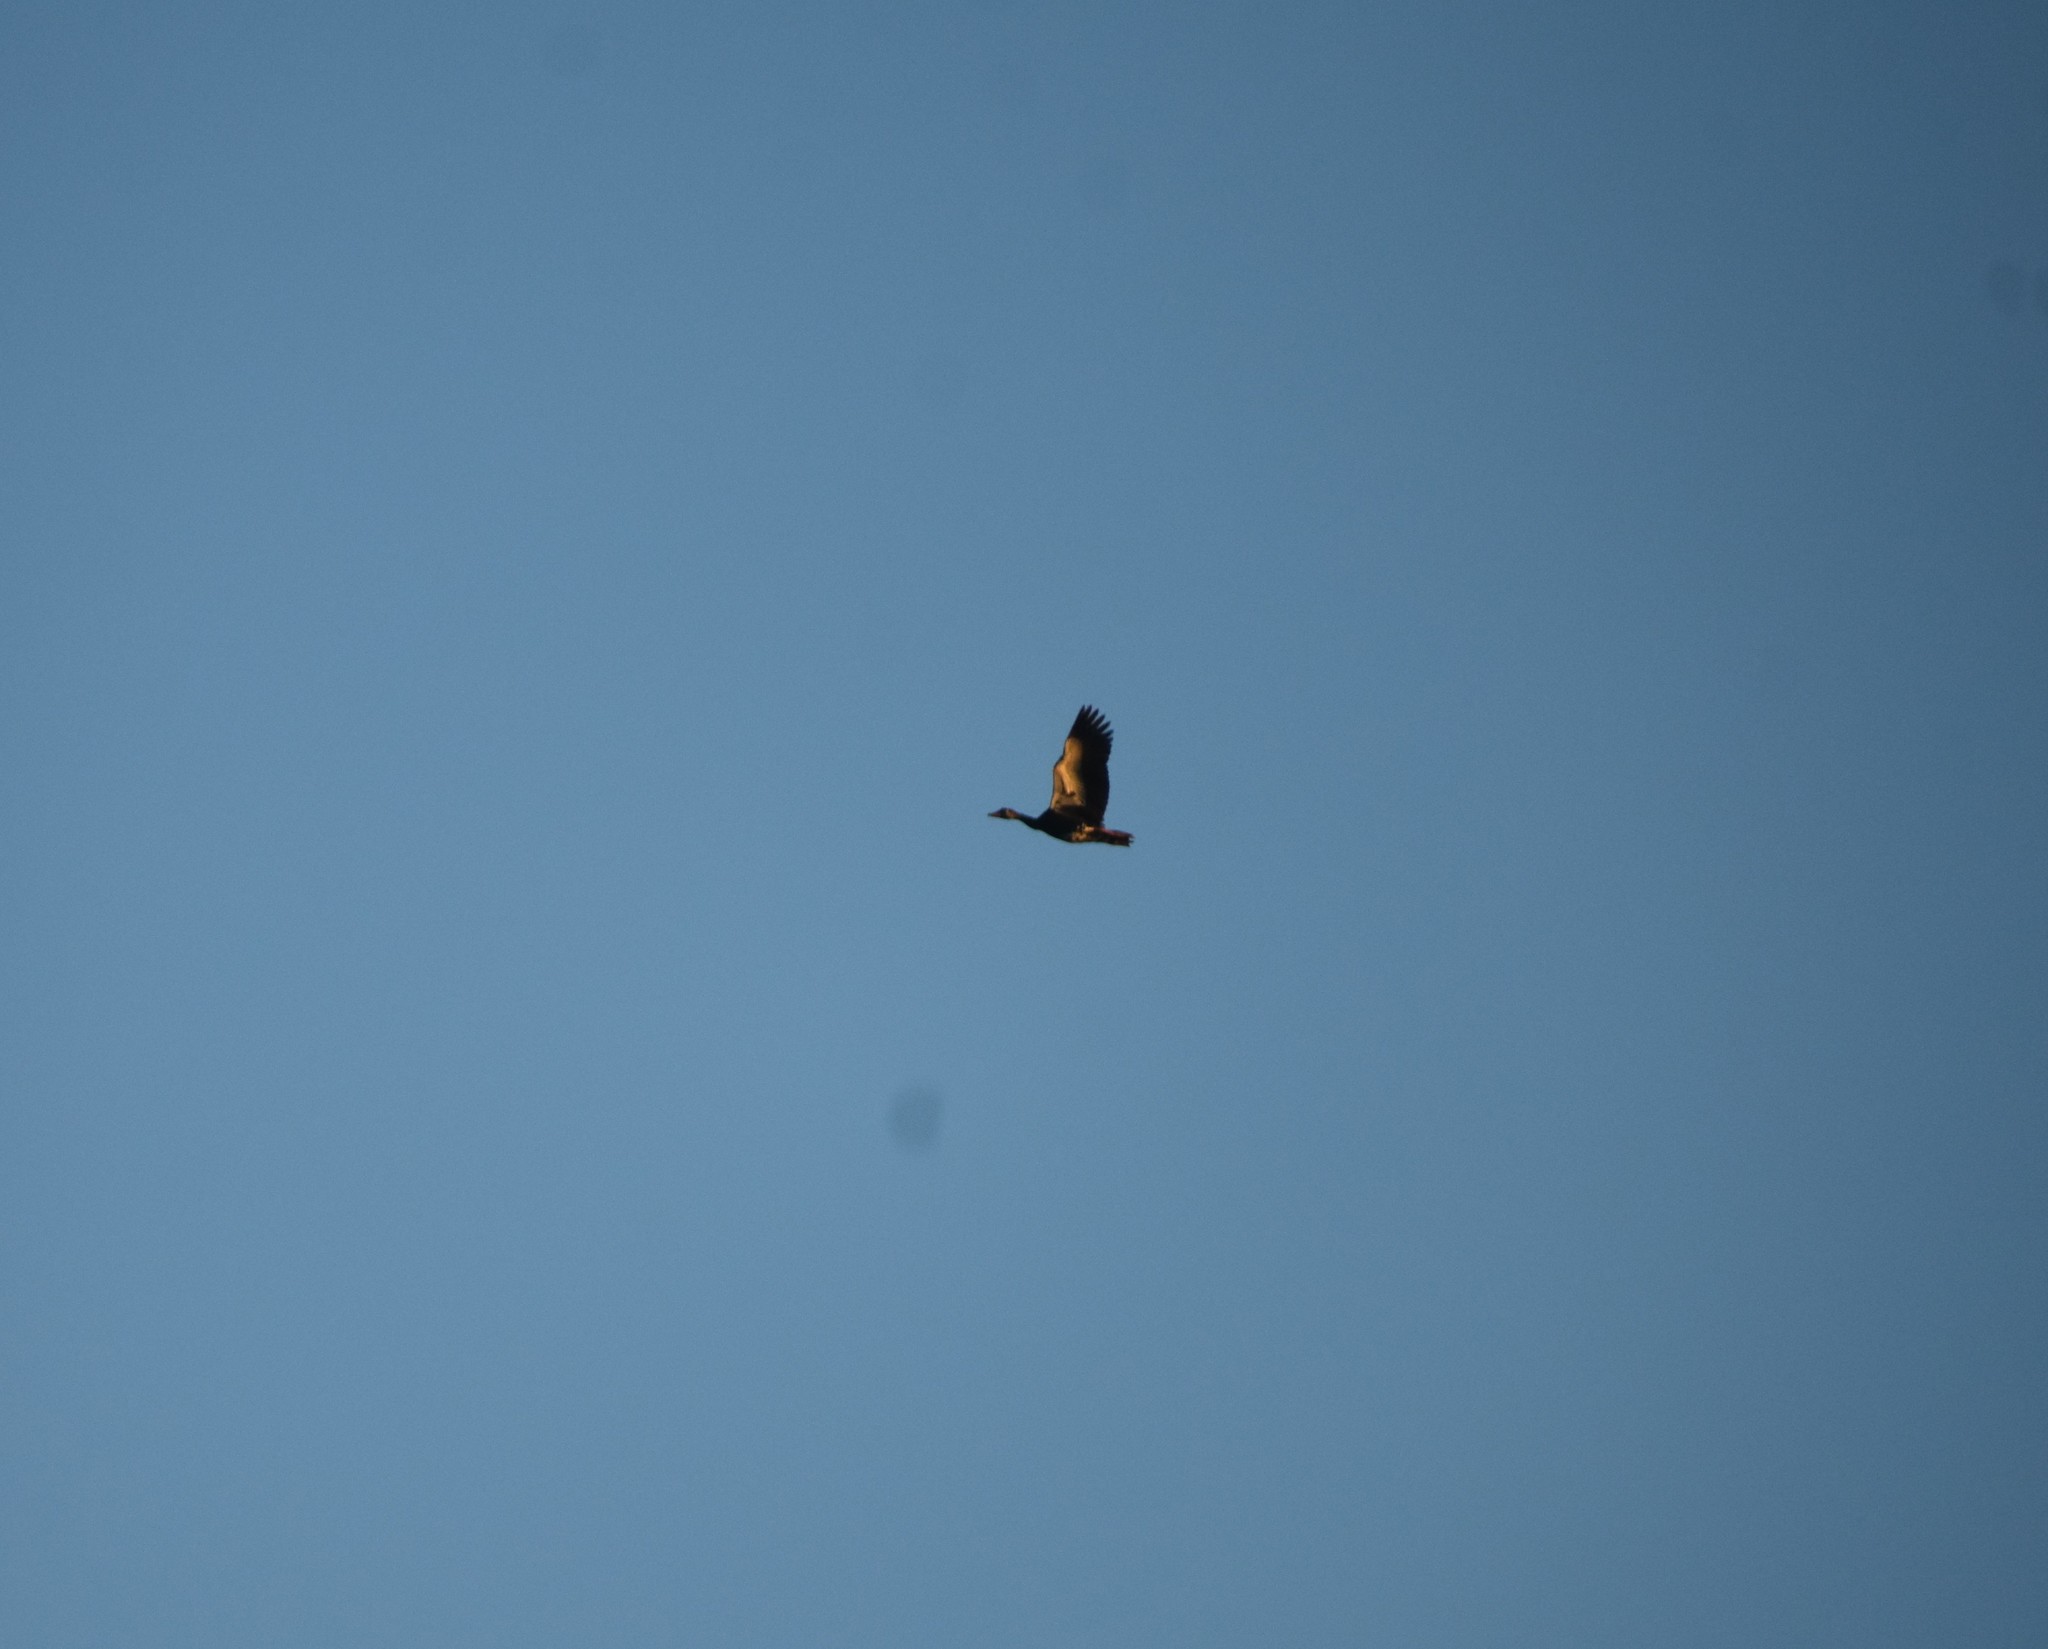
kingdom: Animalia
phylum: Chordata
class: Aves
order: Anseriformes
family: Anatidae
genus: Plectropterus
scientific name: Plectropterus gambensis
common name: Spur-winged goose
